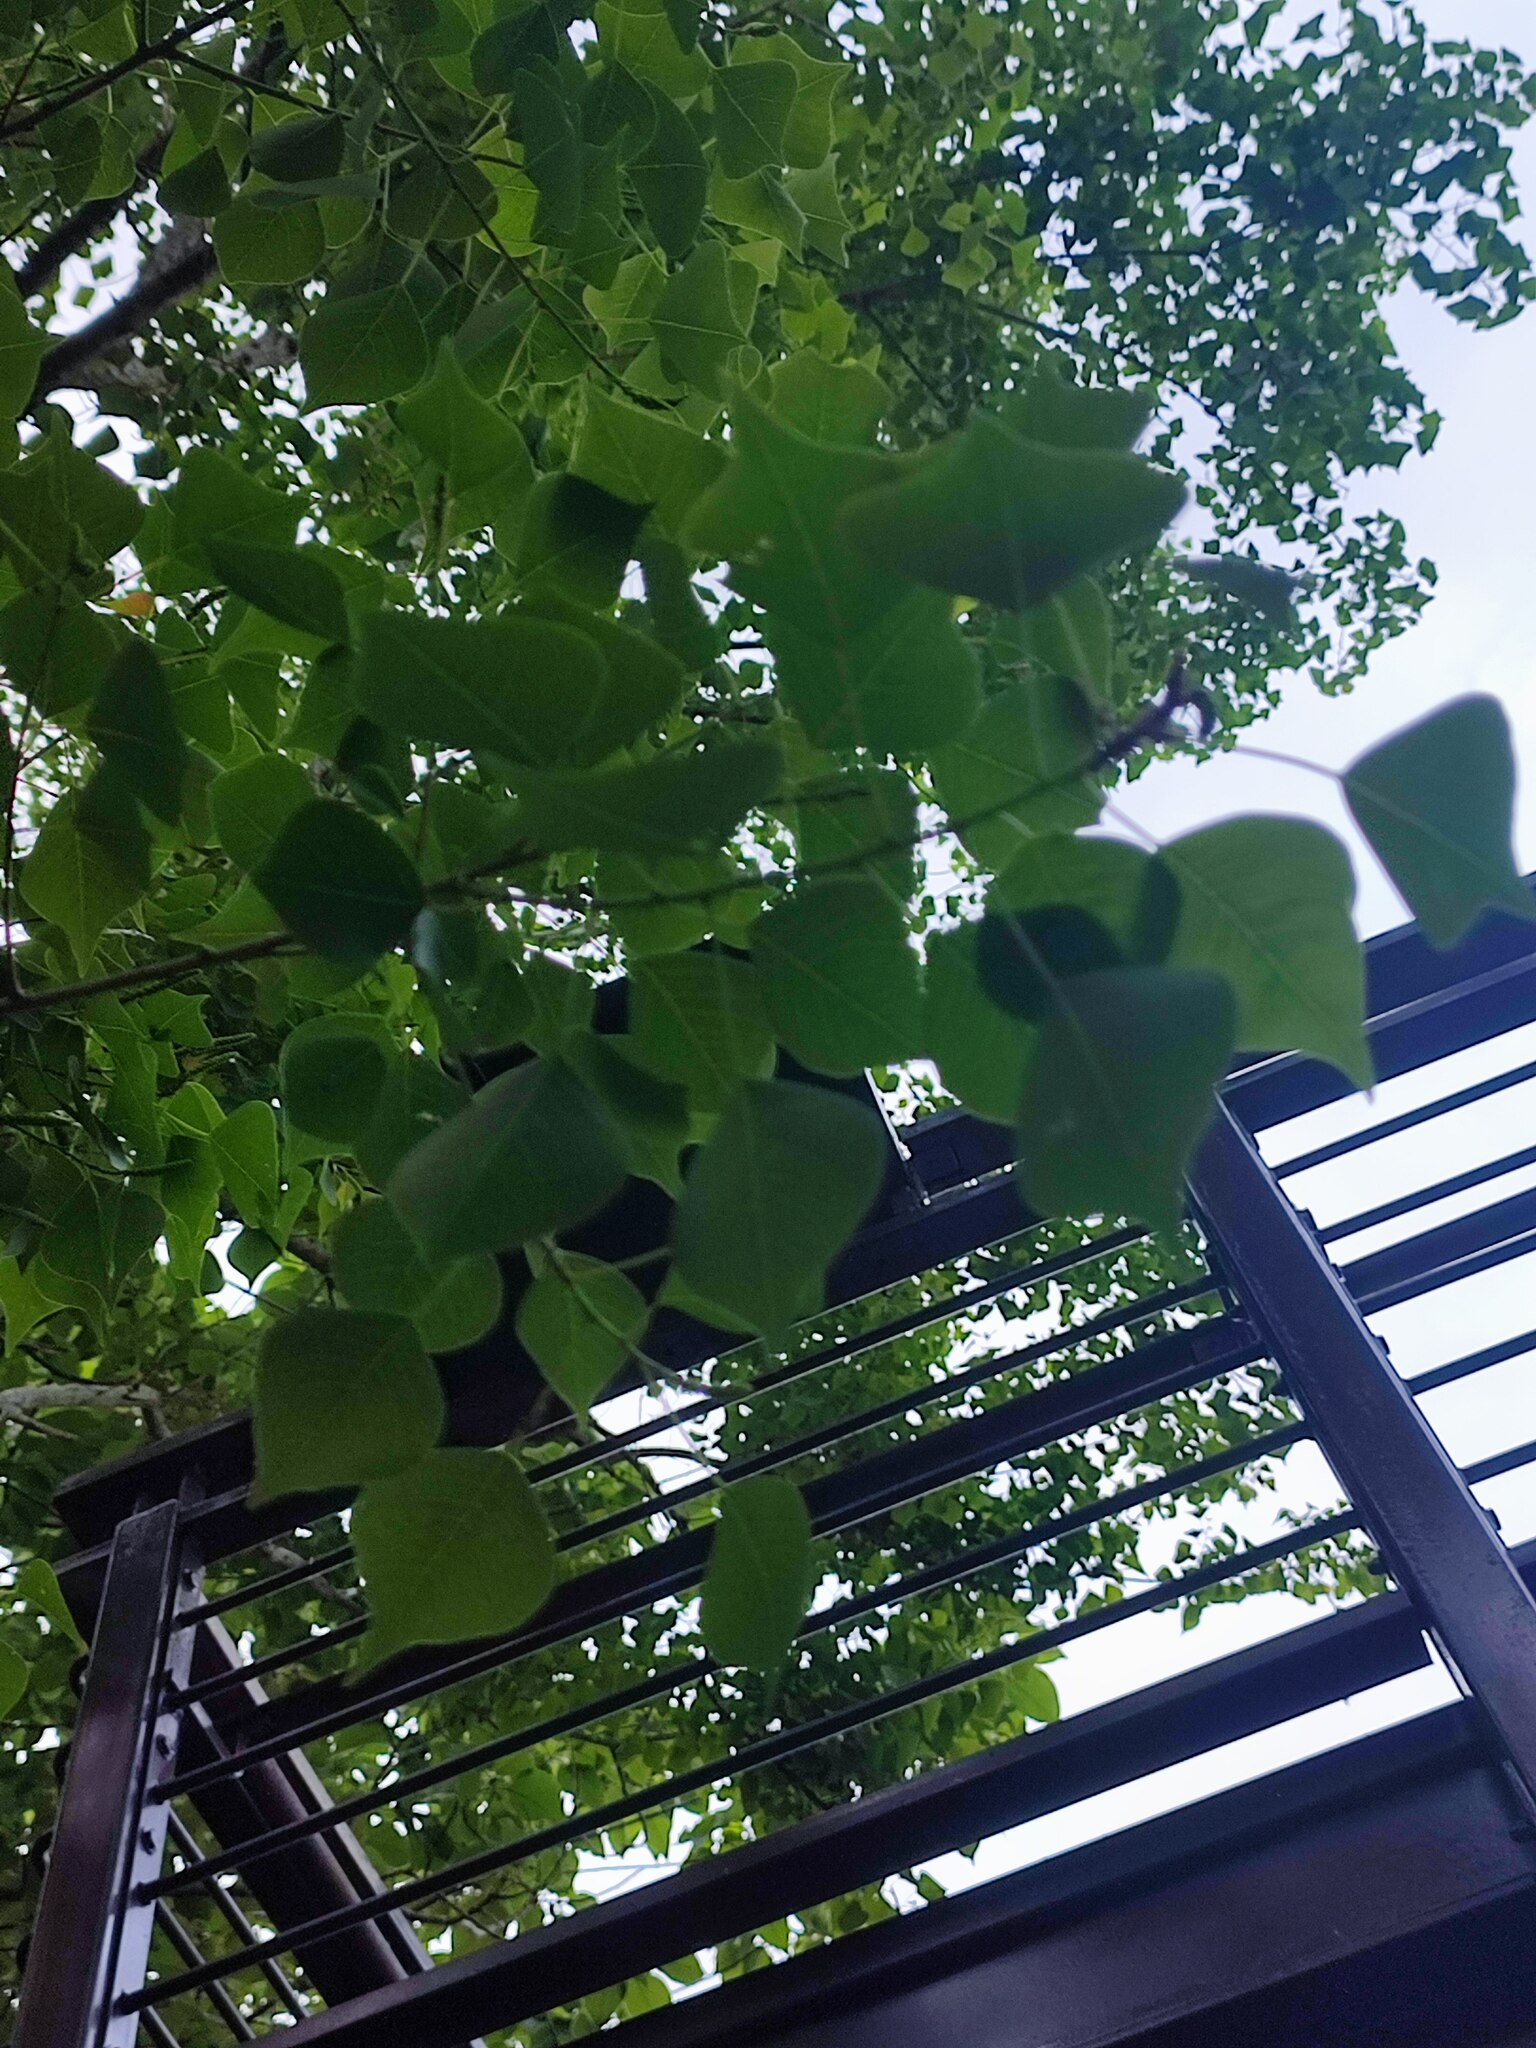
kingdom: Plantae
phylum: Tracheophyta
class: Magnoliopsida
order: Malpighiales
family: Euphorbiaceae
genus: Triadica
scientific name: Triadica sebifera
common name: Chinese tallow
